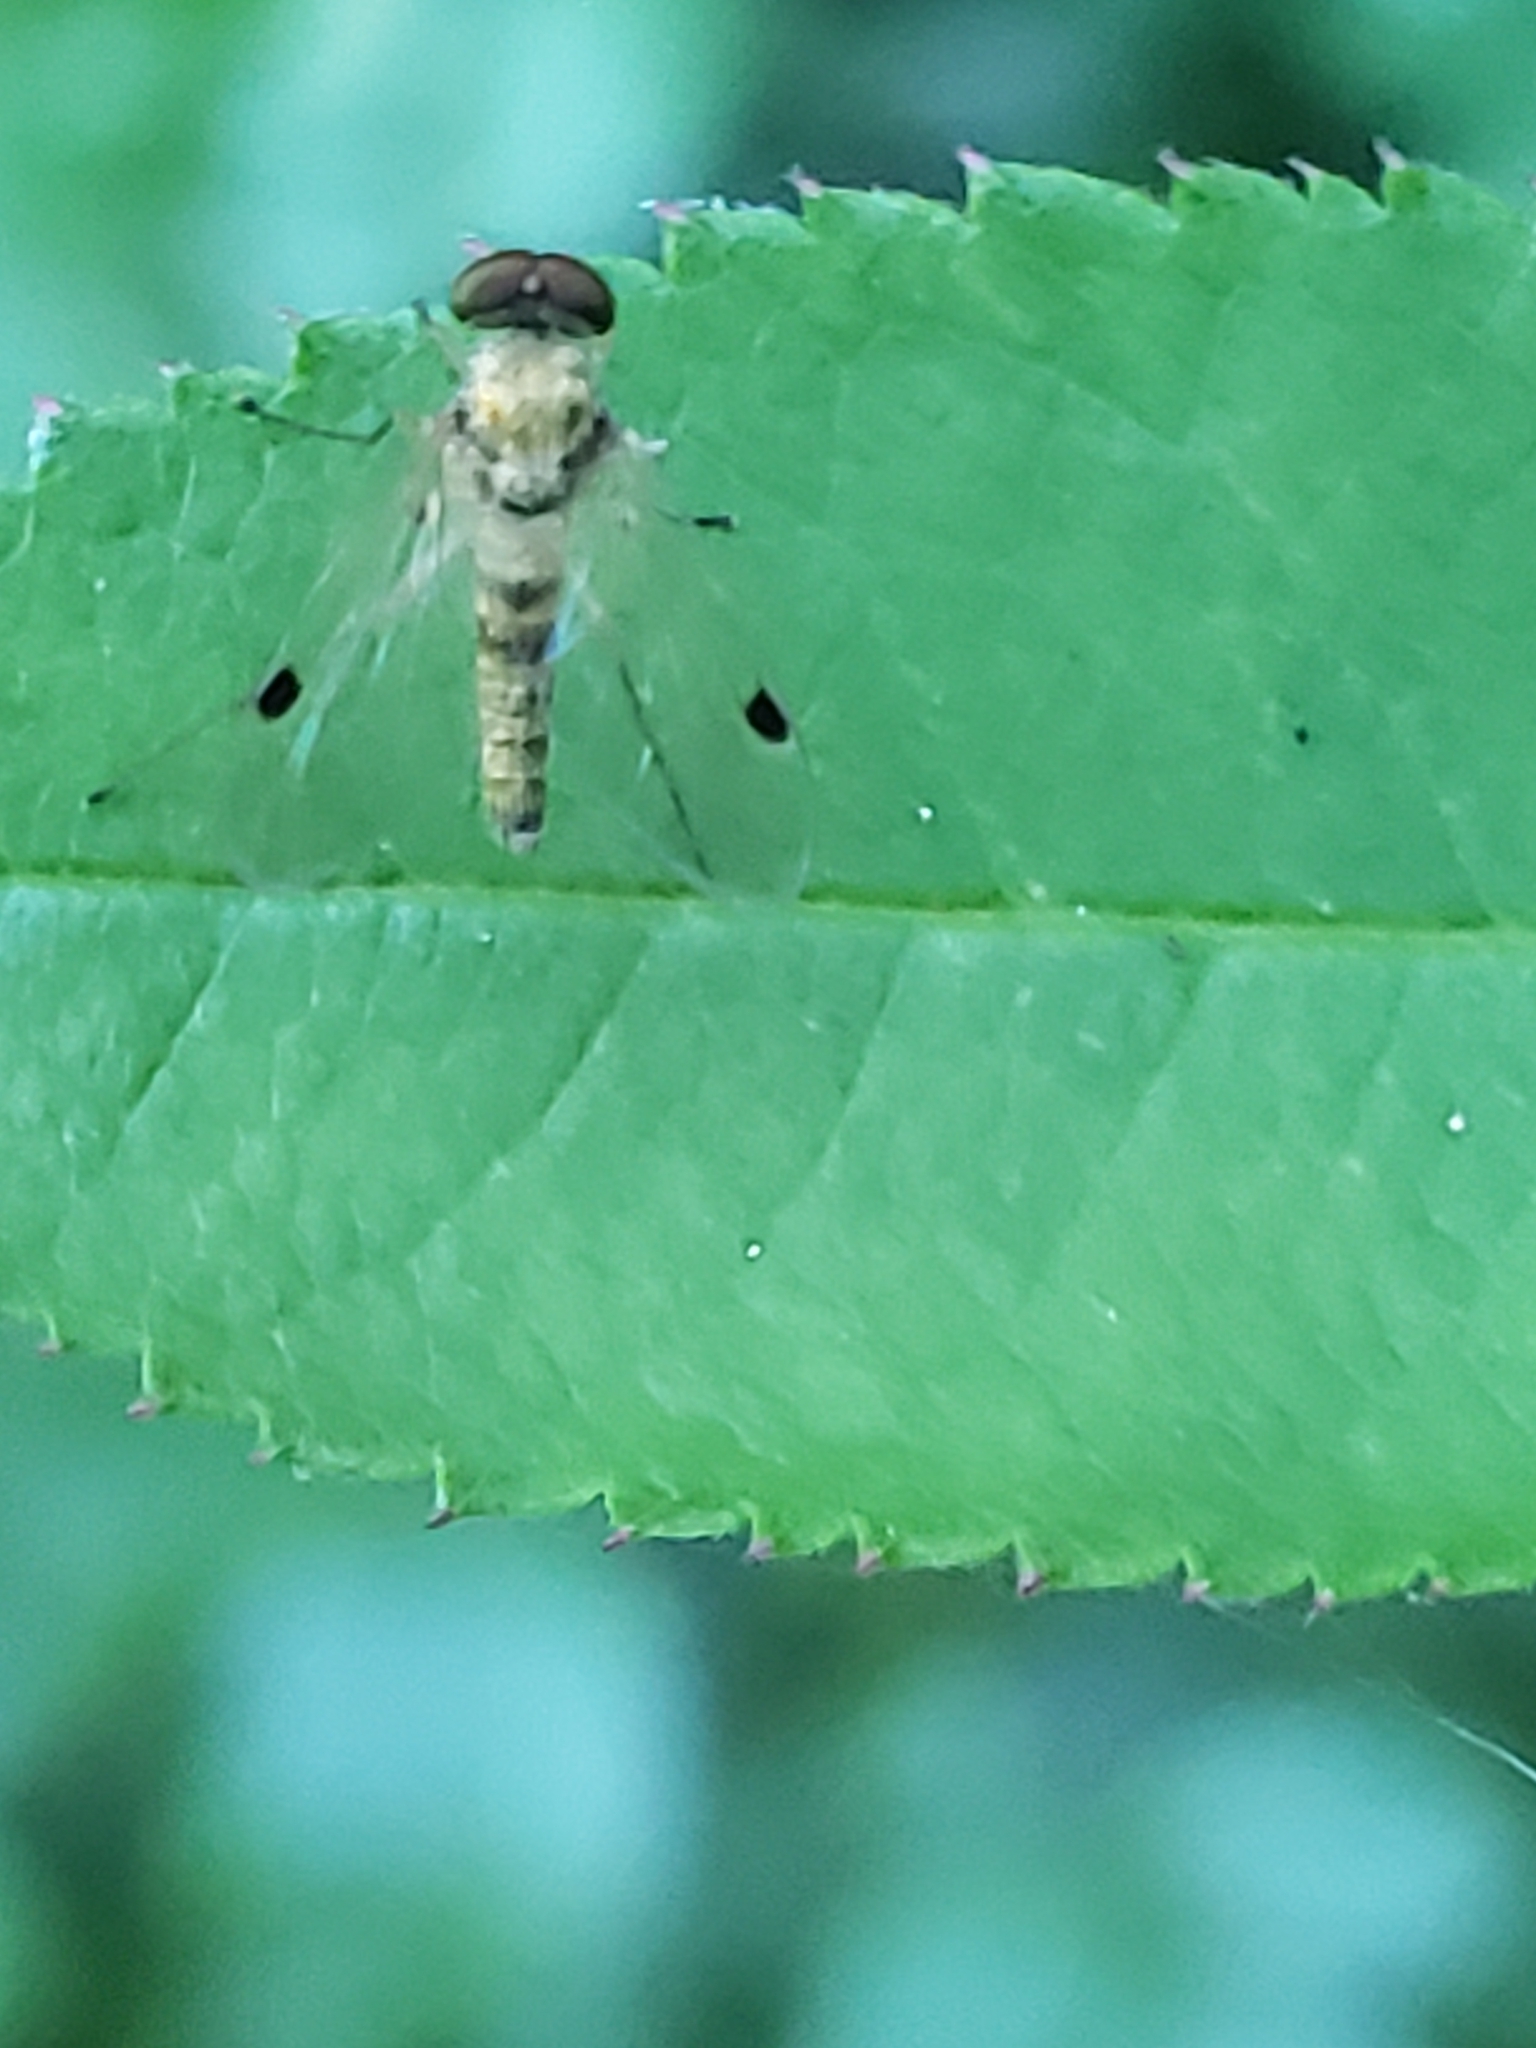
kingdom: Animalia
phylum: Arthropoda
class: Insecta
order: Diptera
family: Rhagionidae
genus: Chrysopilus
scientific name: Chrysopilus modestus
